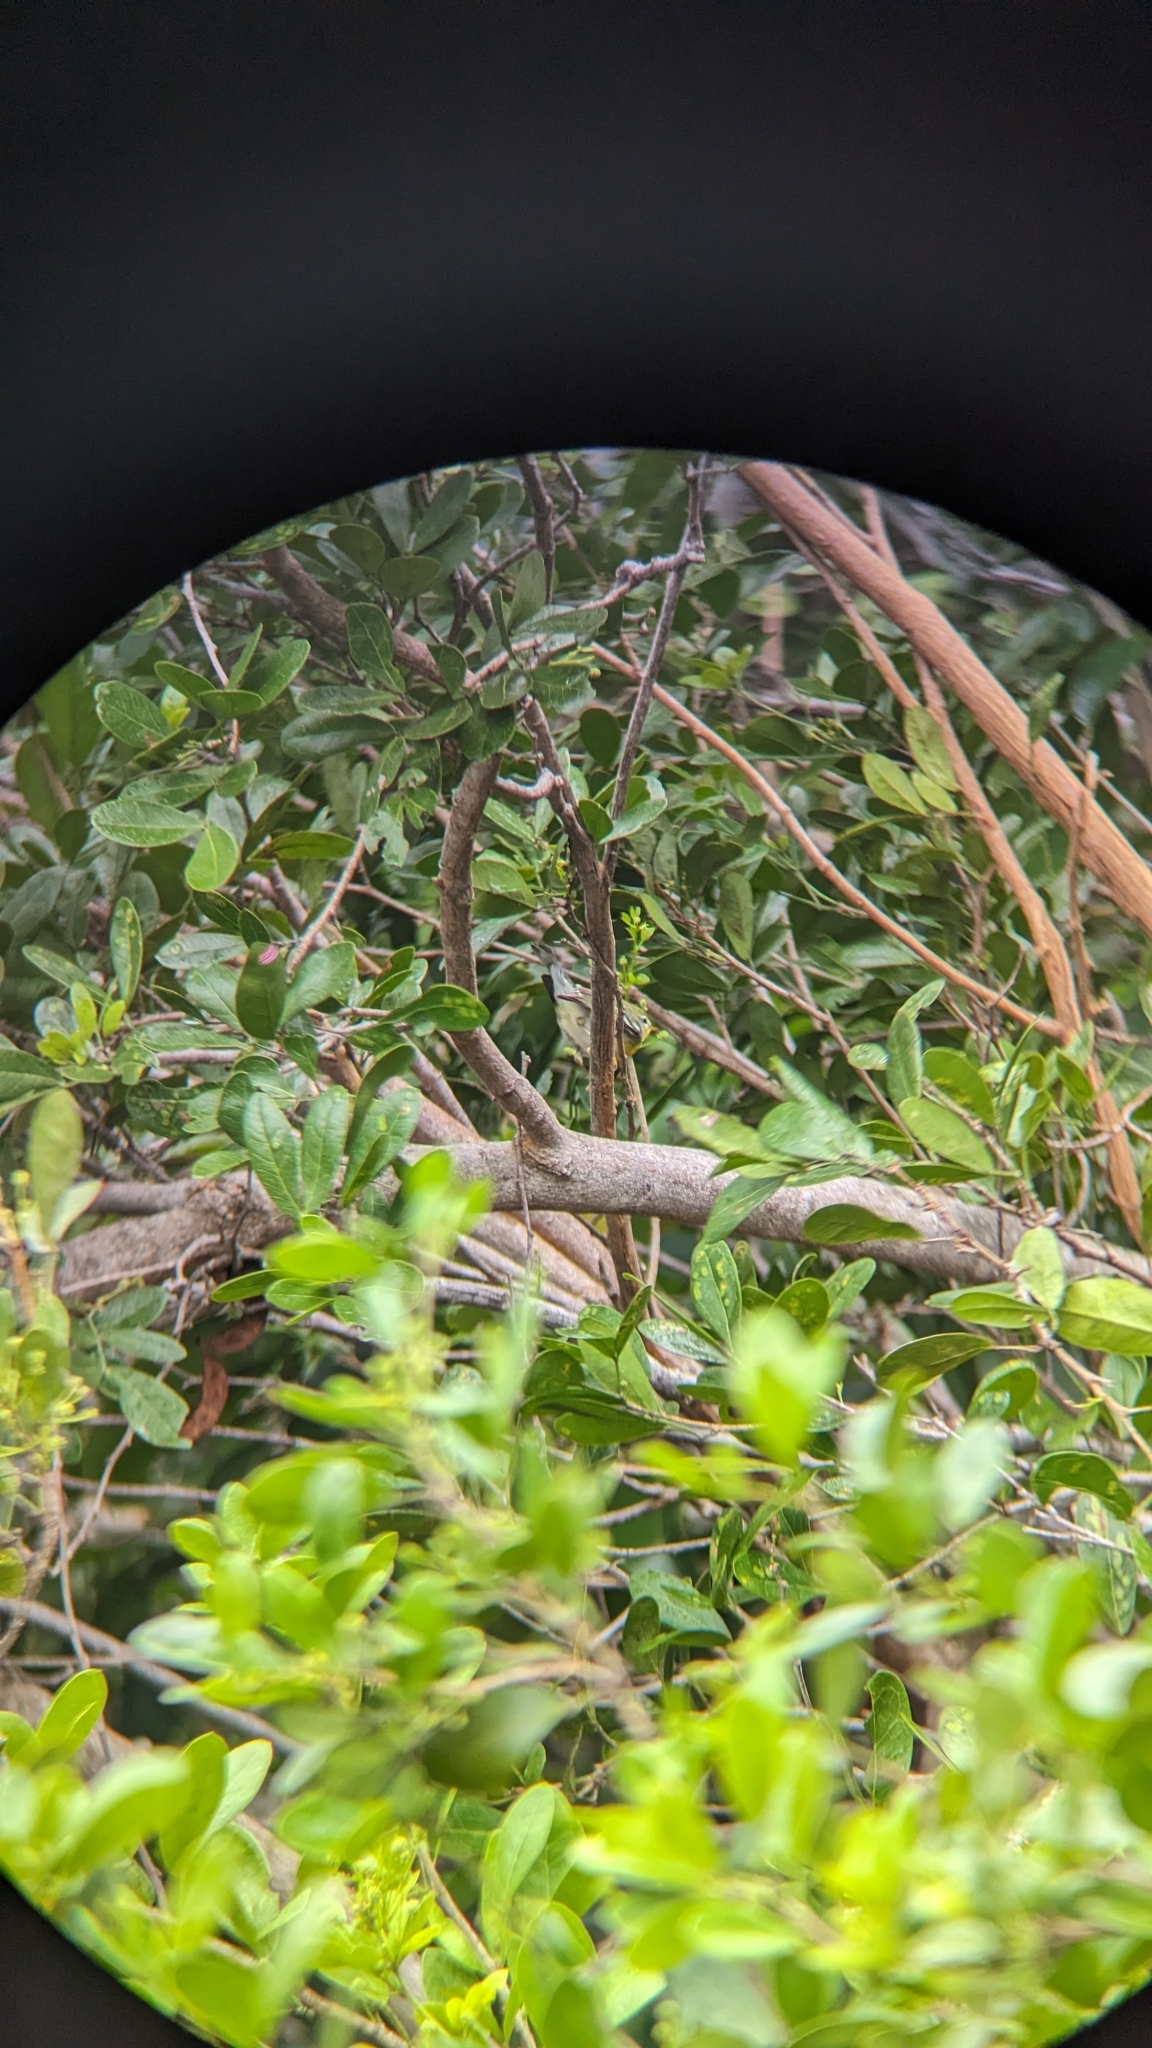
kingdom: Animalia
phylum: Chordata
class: Aves
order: Passeriformes
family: Parulidae
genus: Setophaga
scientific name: Setophaga americana
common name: Northern parula
